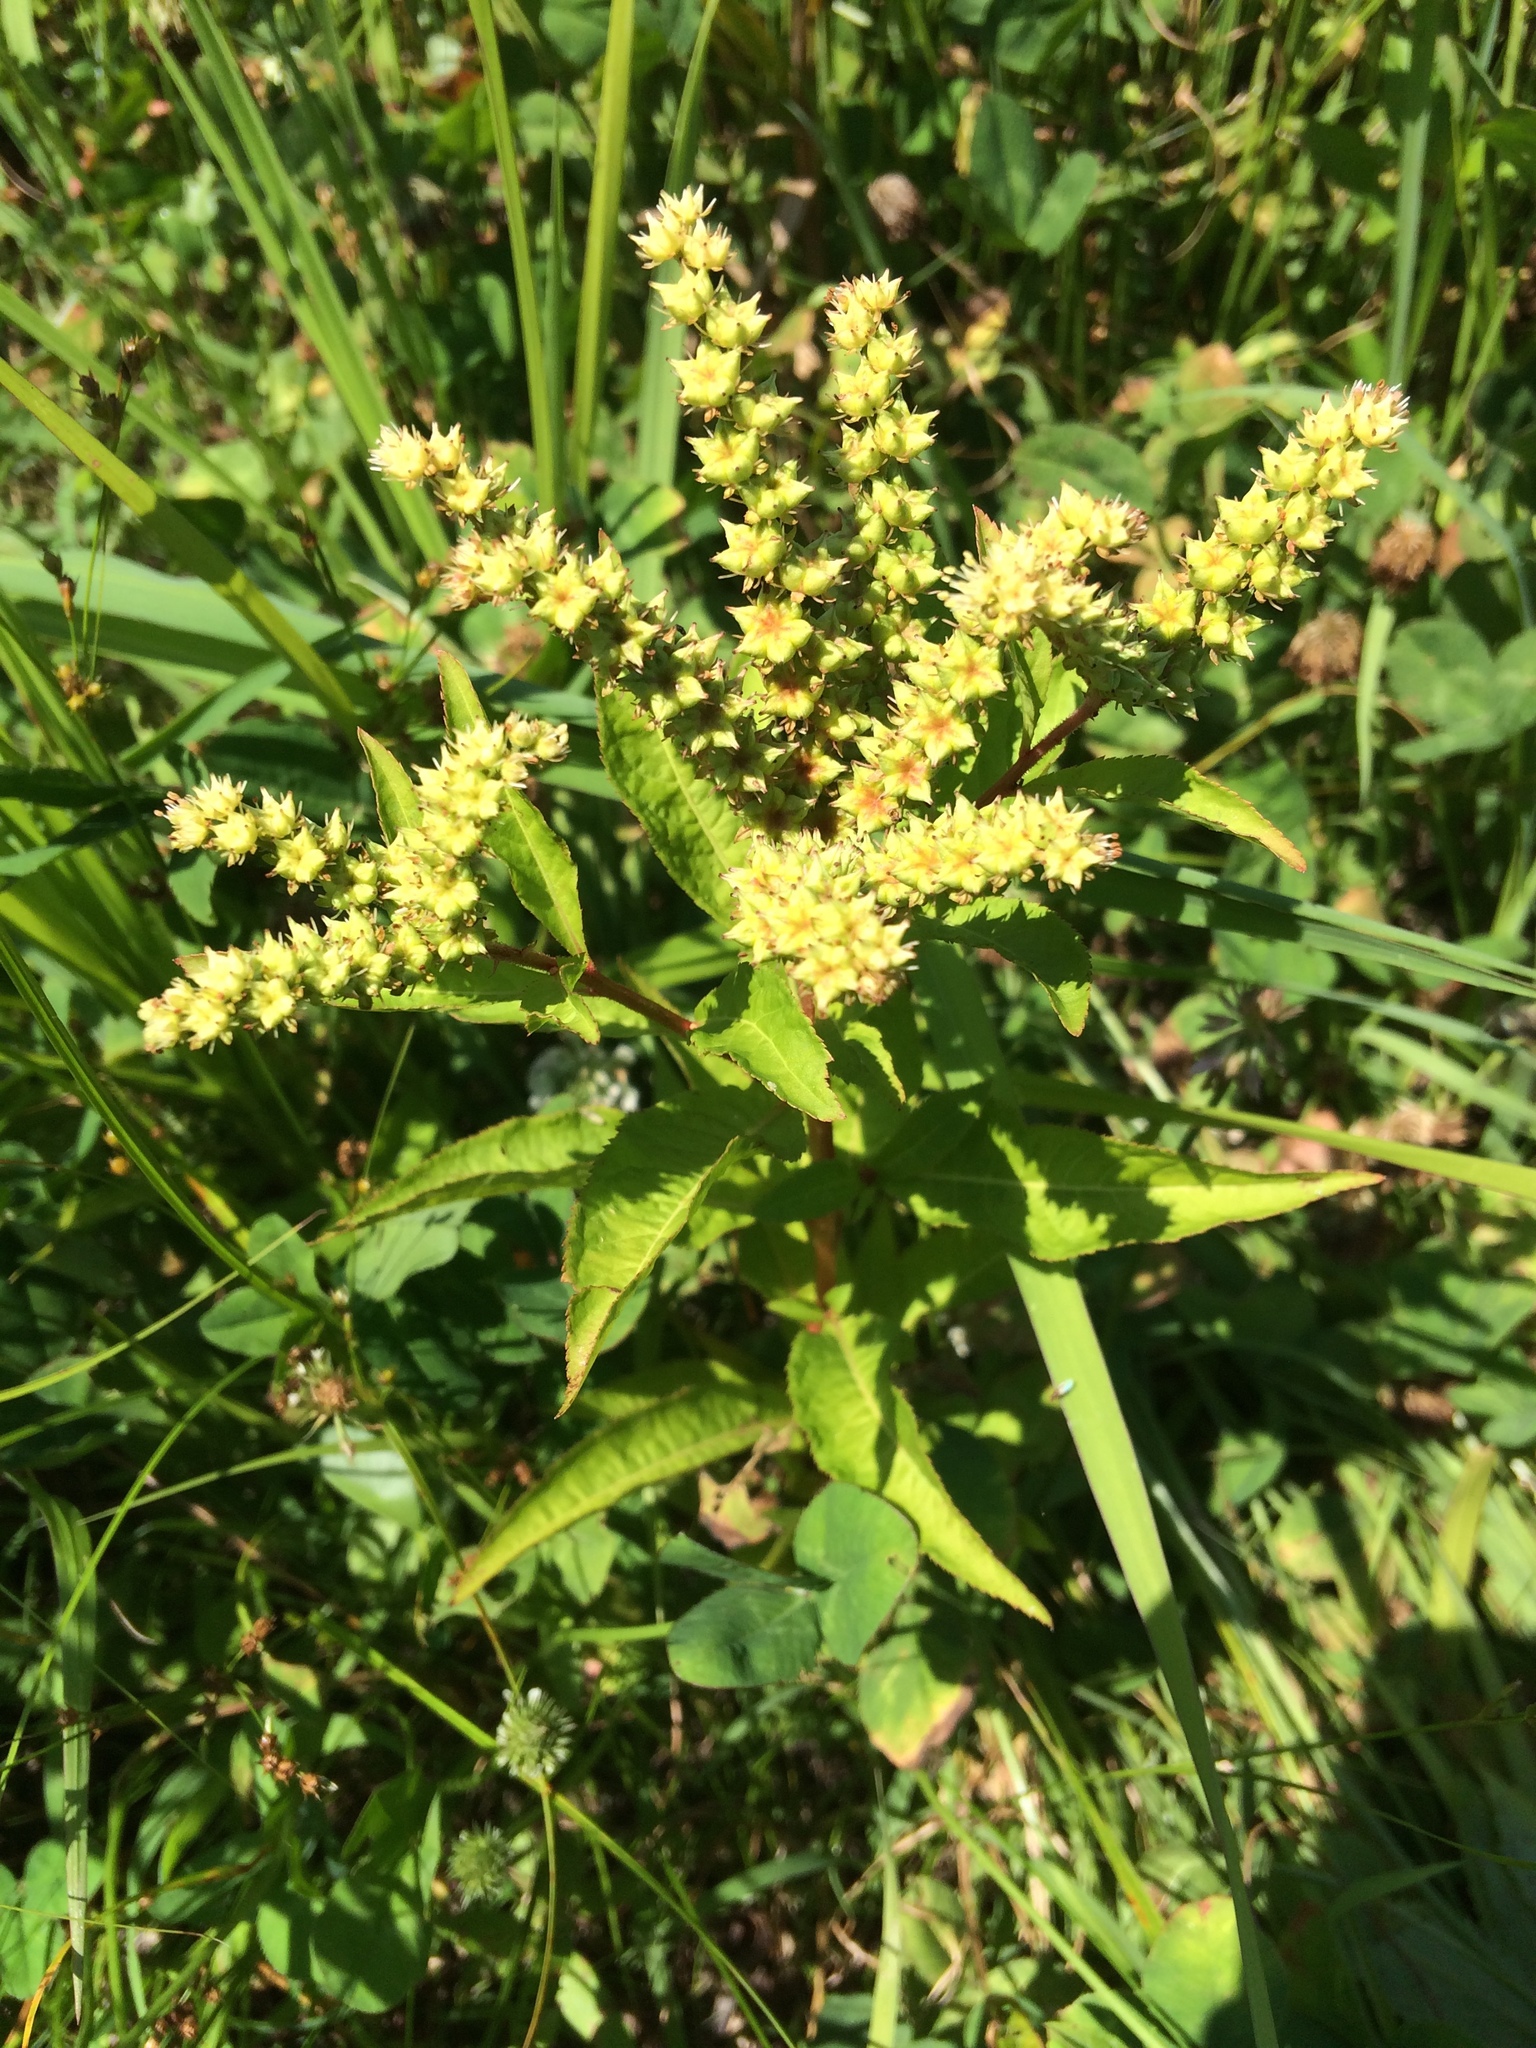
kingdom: Plantae
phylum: Tracheophyta
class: Magnoliopsida
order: Saxifragales
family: Penthoraceae
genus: Penthorum
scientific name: Penthorum sedoides
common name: Ditch stonecrop
